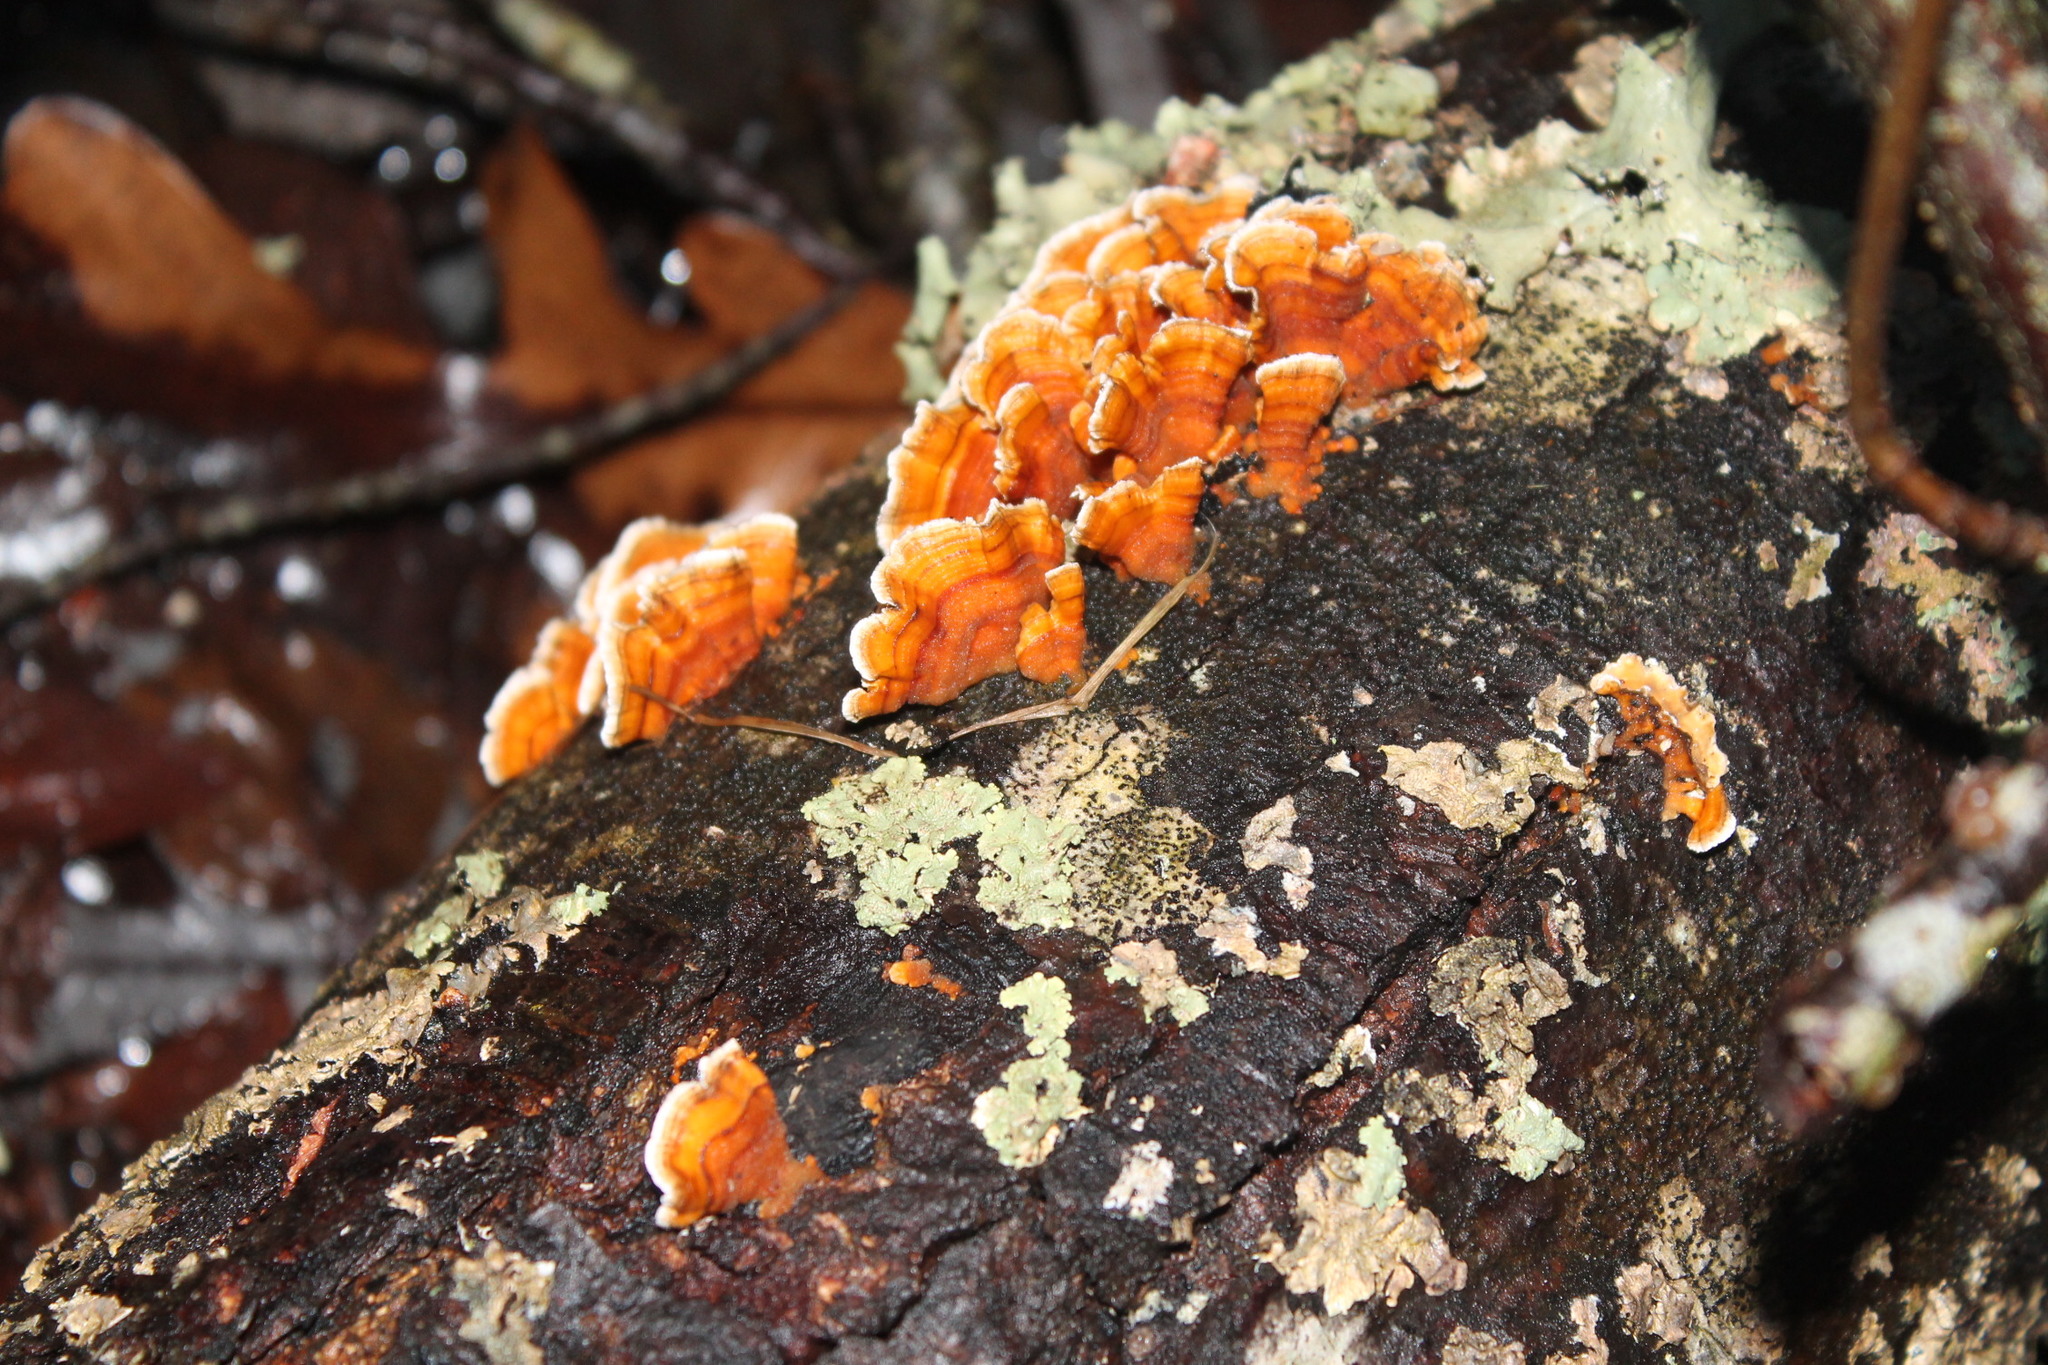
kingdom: Fungi
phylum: Basidiomycota
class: Agaricomycetes
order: Russulales
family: Stereaceae
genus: Stereum
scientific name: Stereum complicatum
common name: Crowded parchment
